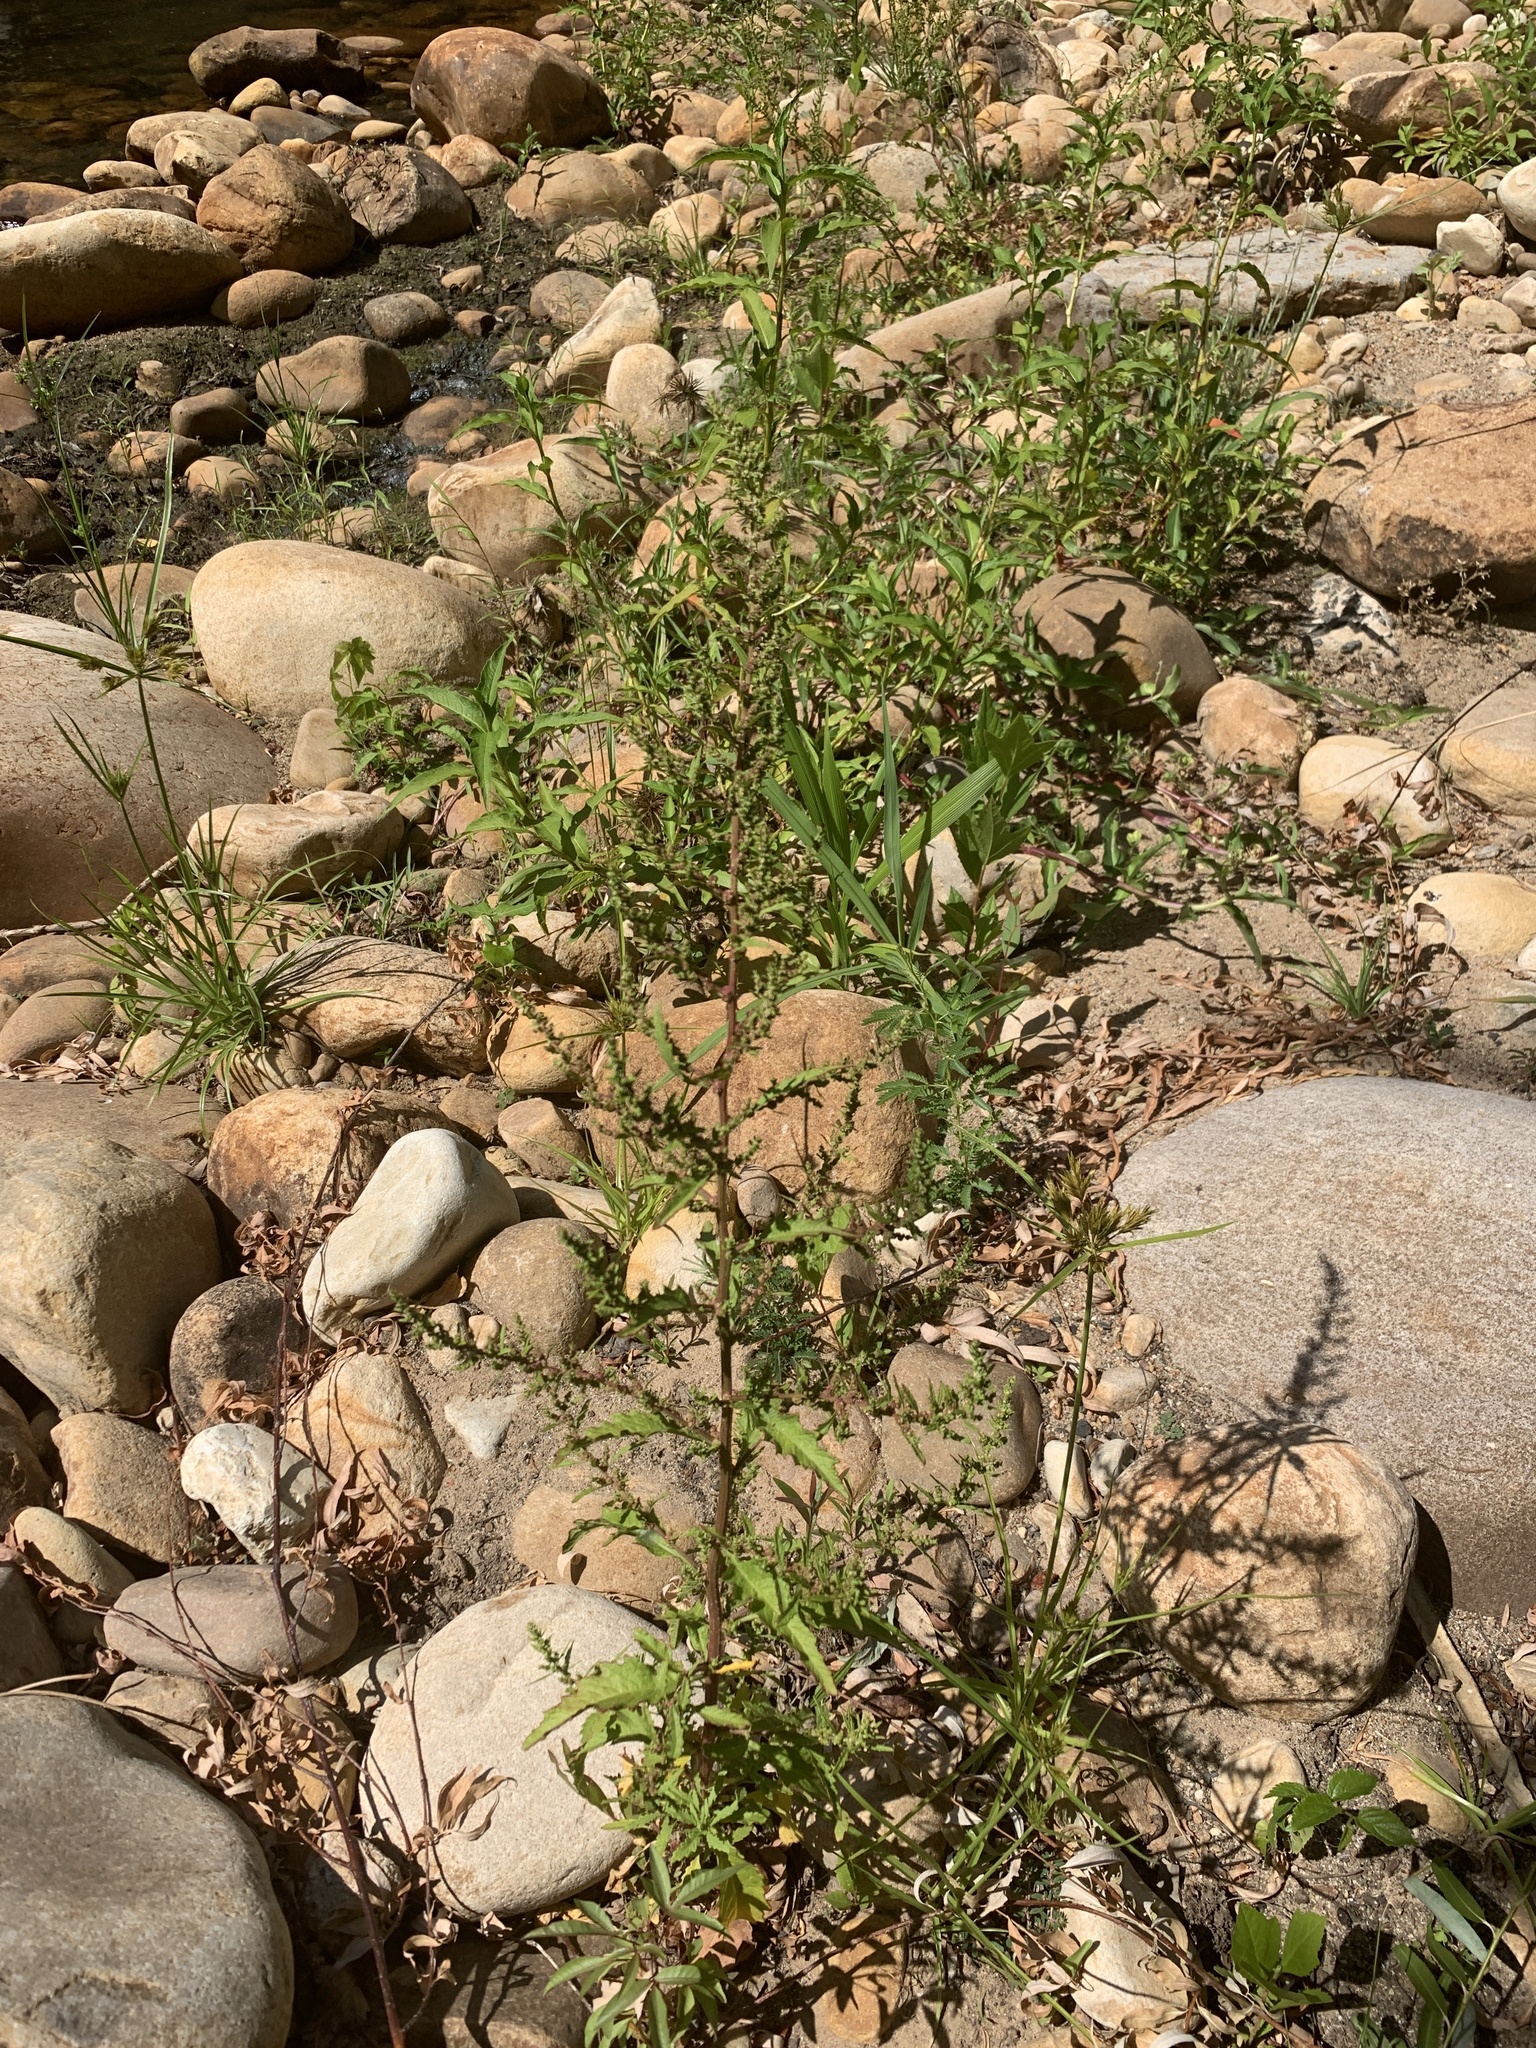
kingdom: Plantae
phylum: Tracheophyta
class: Magnoliopsida
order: Caryophyllales
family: Amaranthaceae
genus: Dysphania
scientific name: Dysphania ambrosioides
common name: Wormseed
